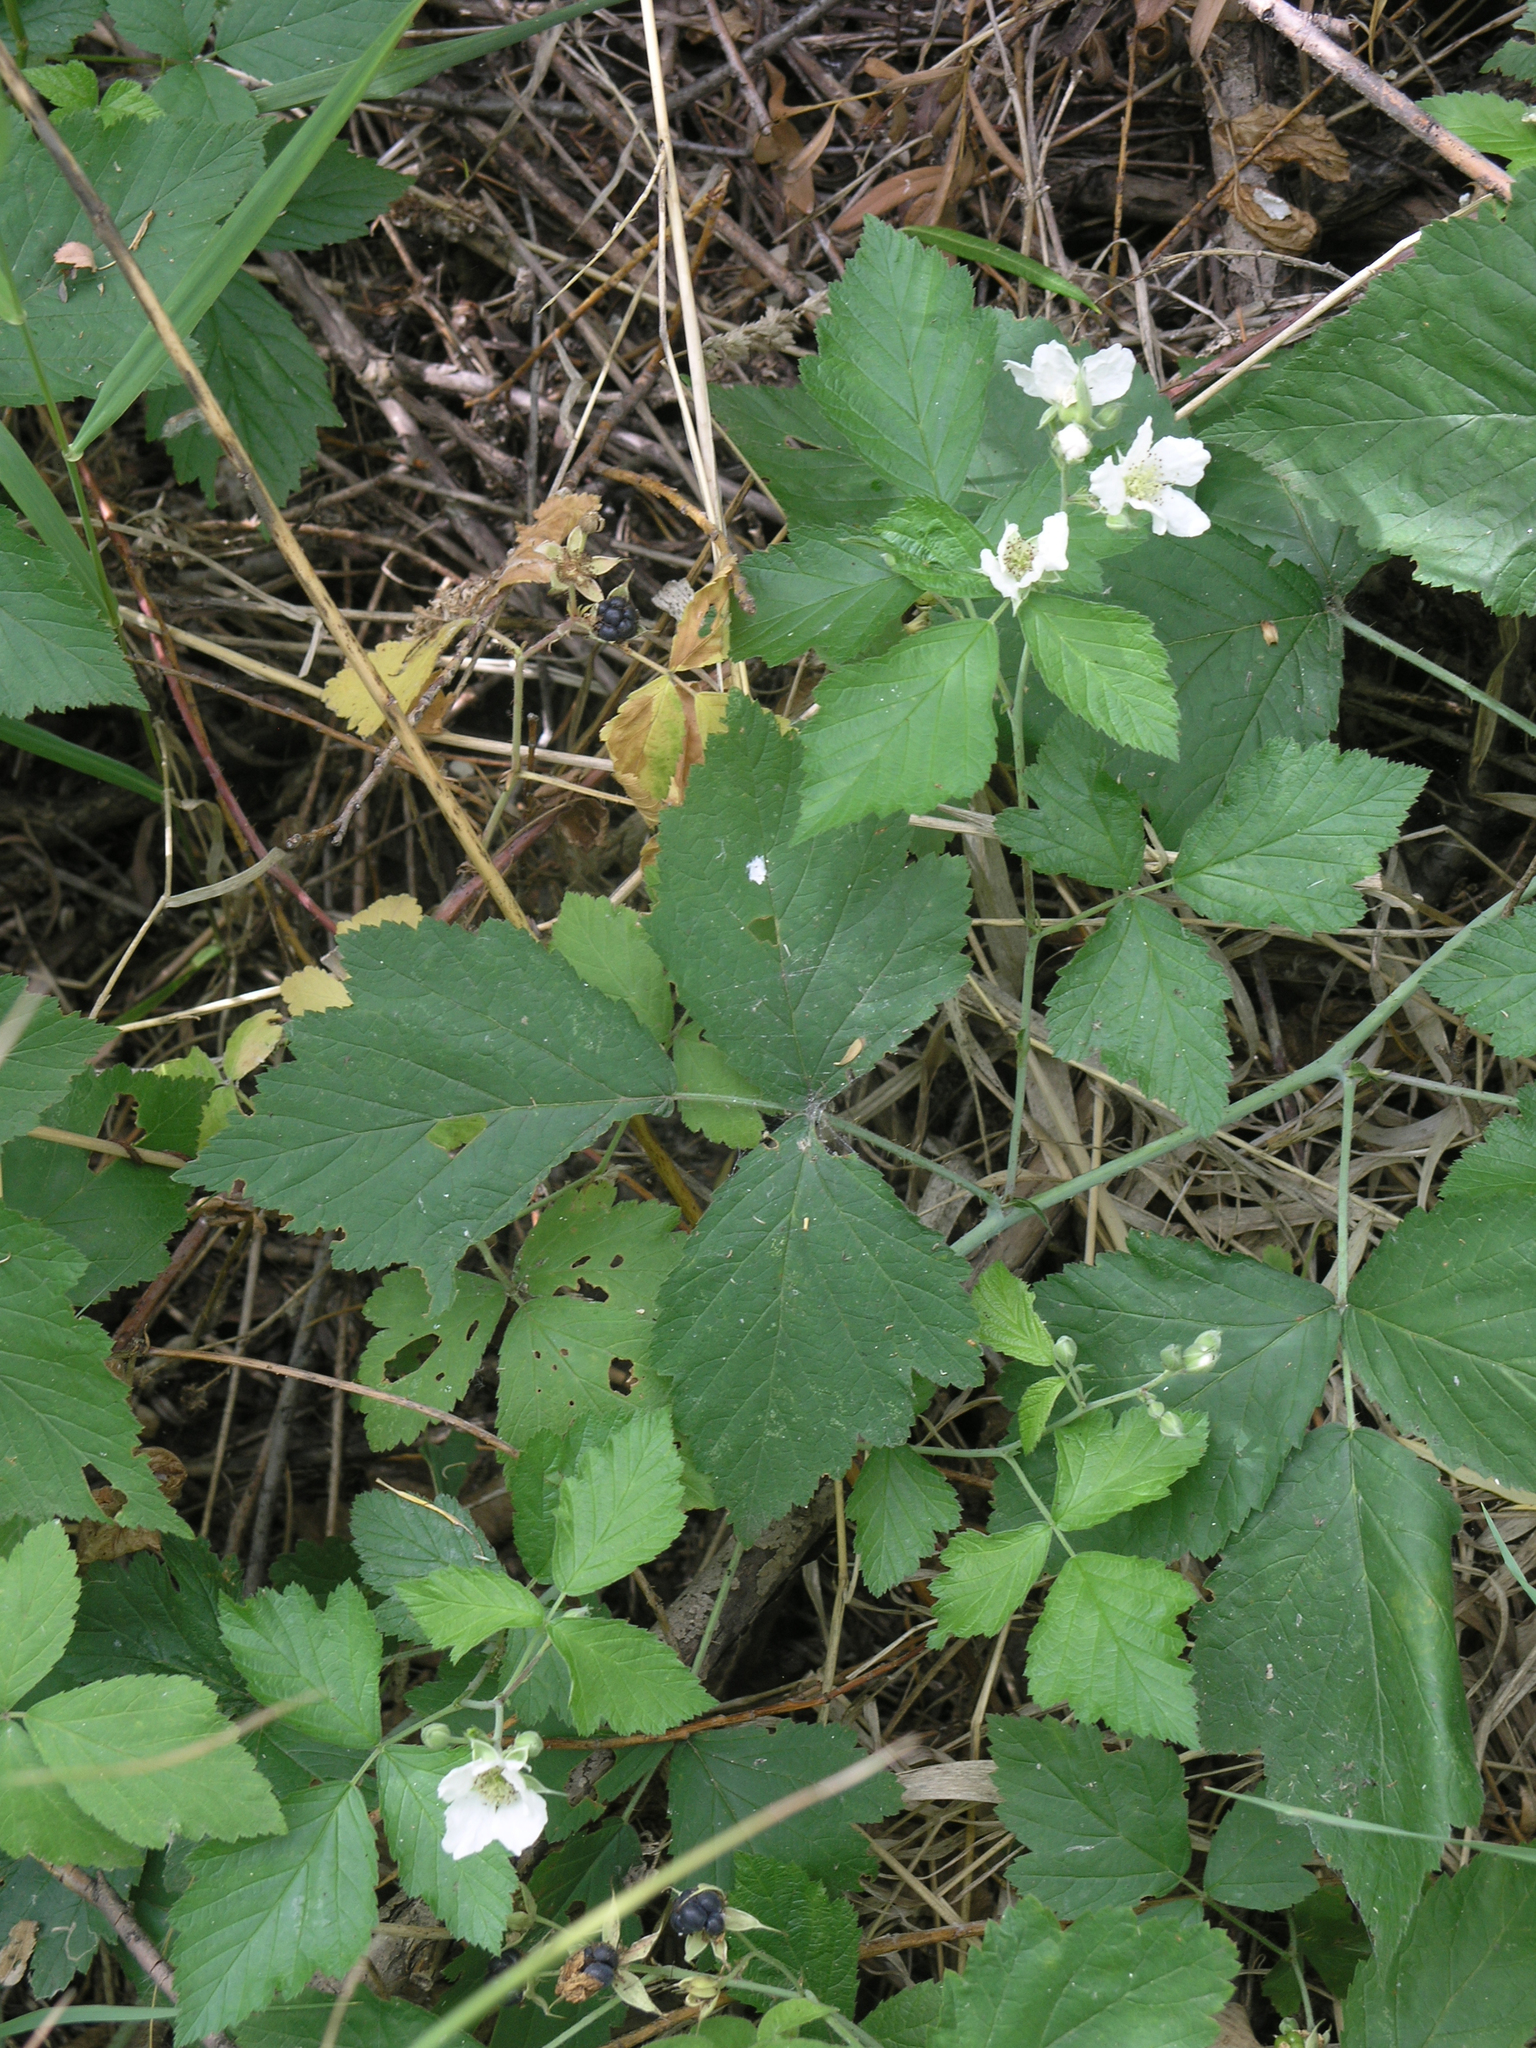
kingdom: Plantae
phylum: Tracheophyta
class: Magnoliopsida
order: Rosales
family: Rosaceae
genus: Rubus
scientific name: Rubus caesius
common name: Dewberry
